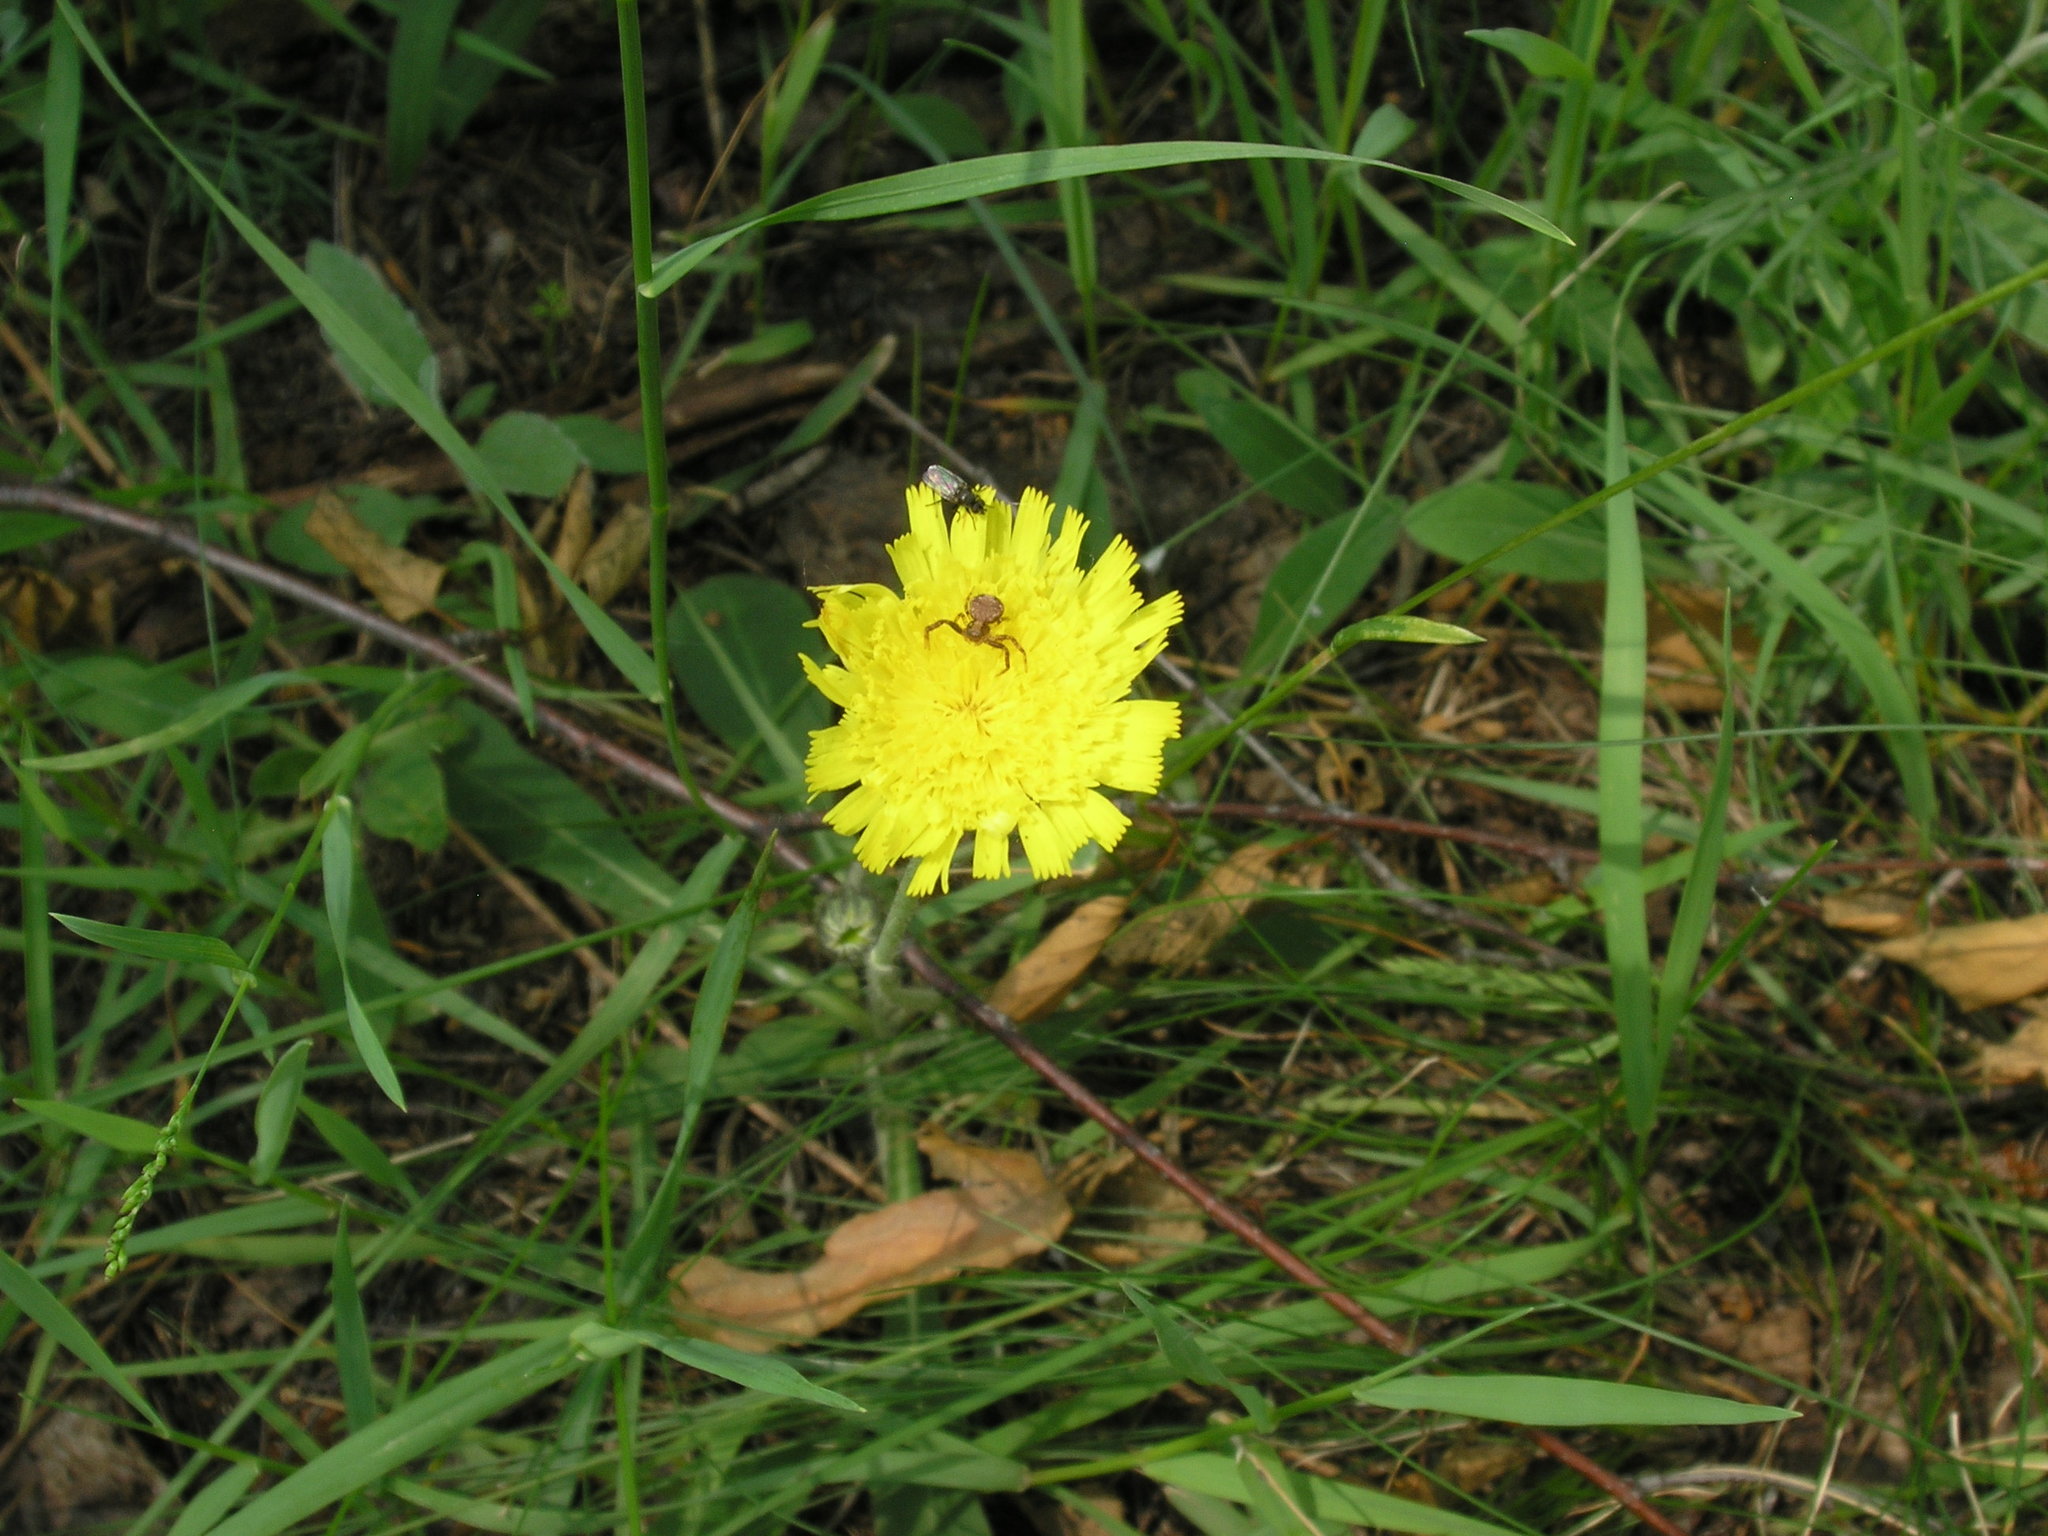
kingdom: Plantae
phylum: Tracheophyta
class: Magnoliopsida
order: Asterales
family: Asteraceae
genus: Pilosella
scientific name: Pilosella officinarum
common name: Mouse-ear hawkweed
